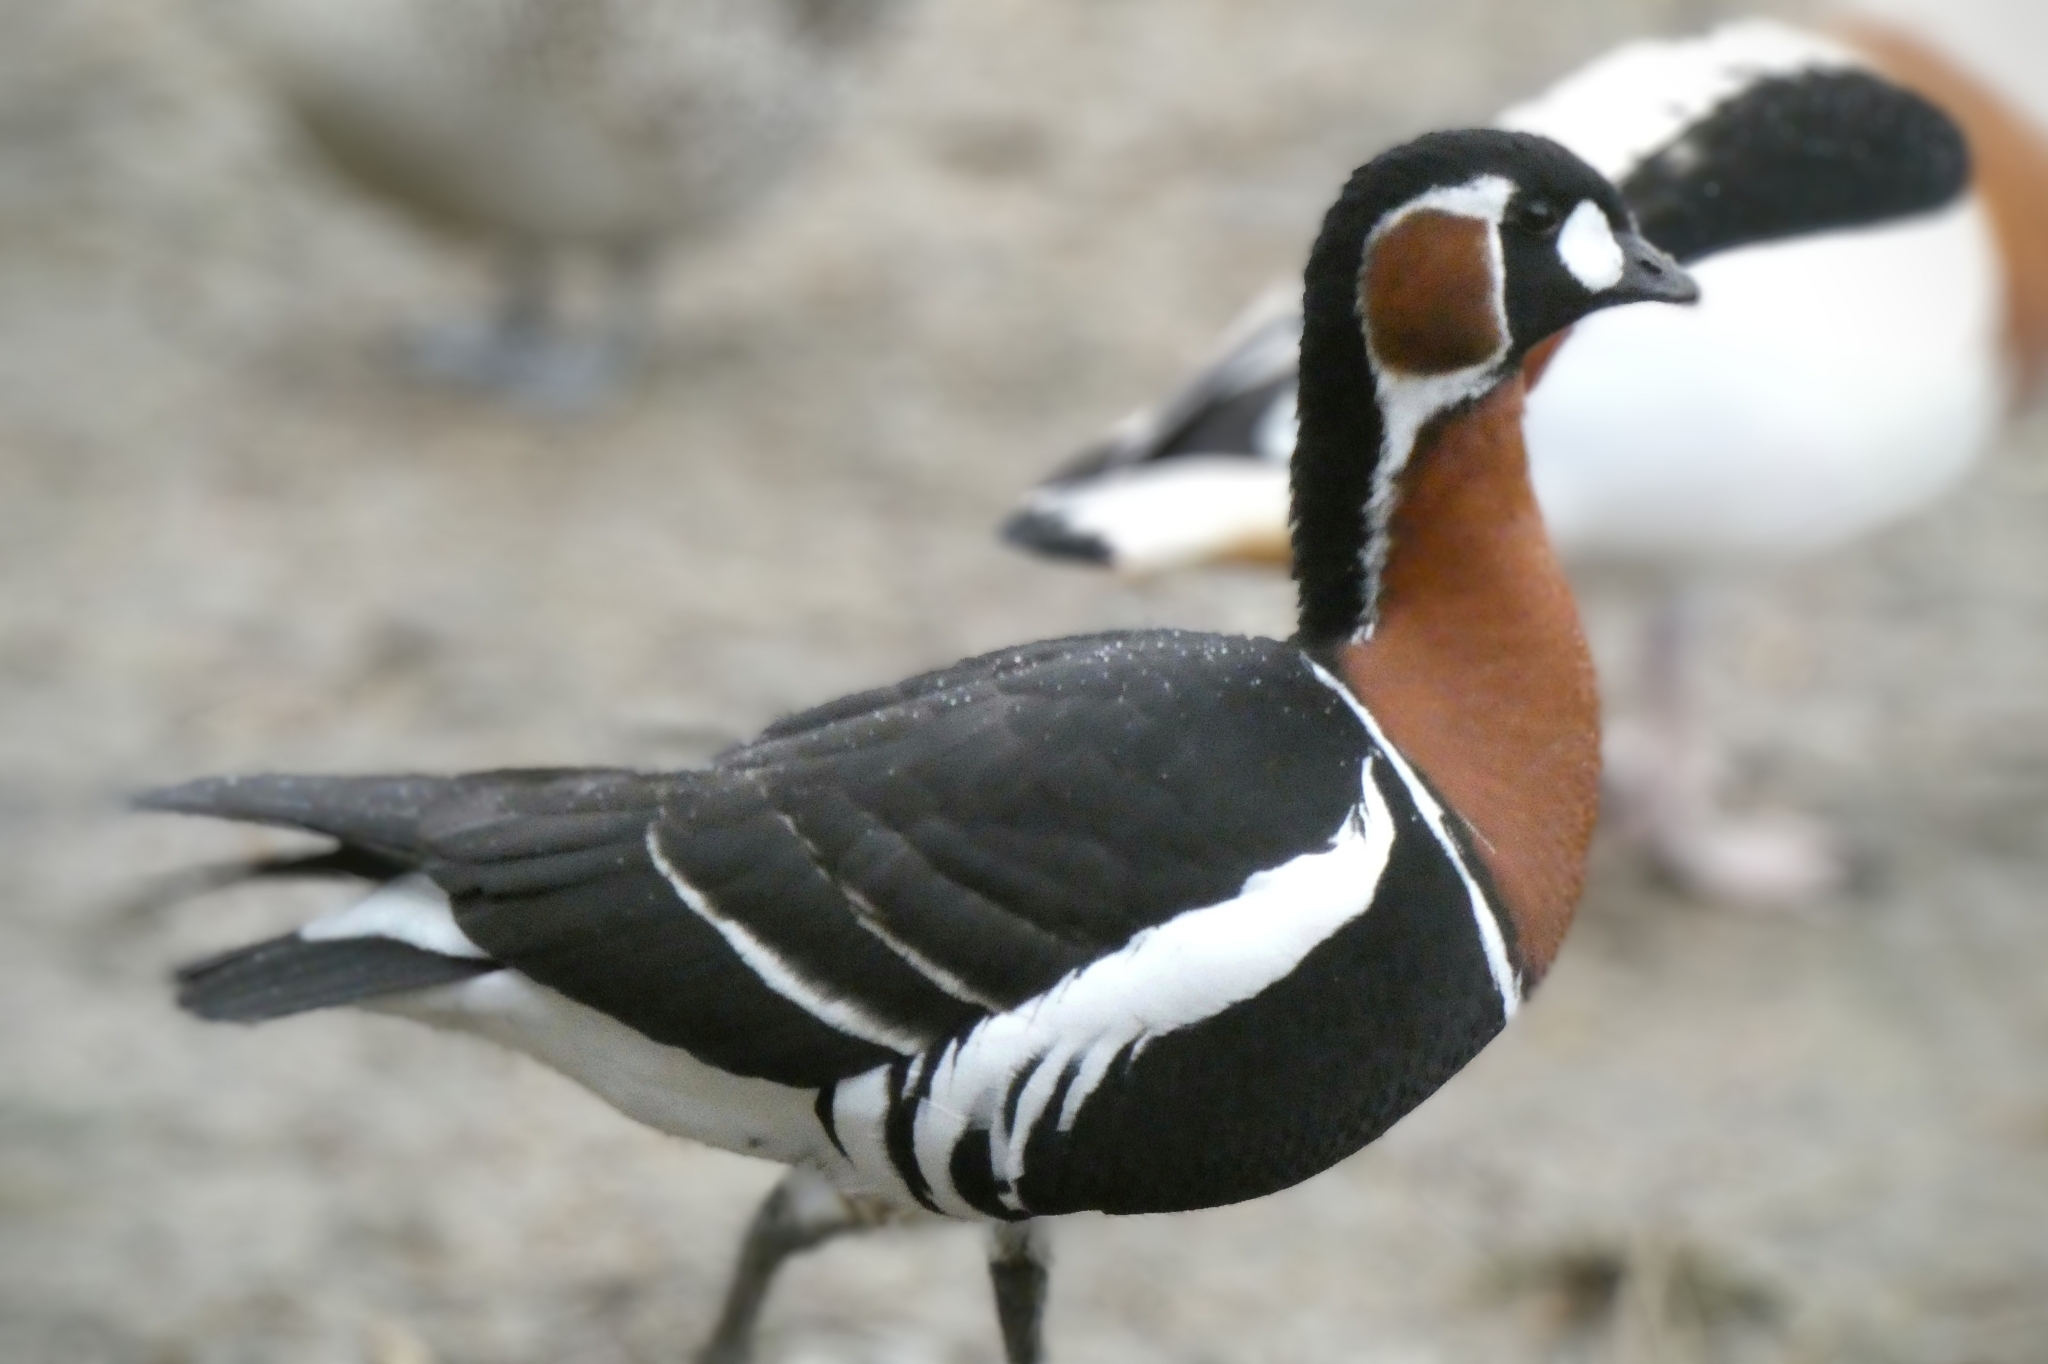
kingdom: Animalia
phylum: Chordata
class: Aves
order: Anseriformes
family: Anatidae
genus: Branta
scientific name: Branta ruficollis
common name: Red-breasted goose
